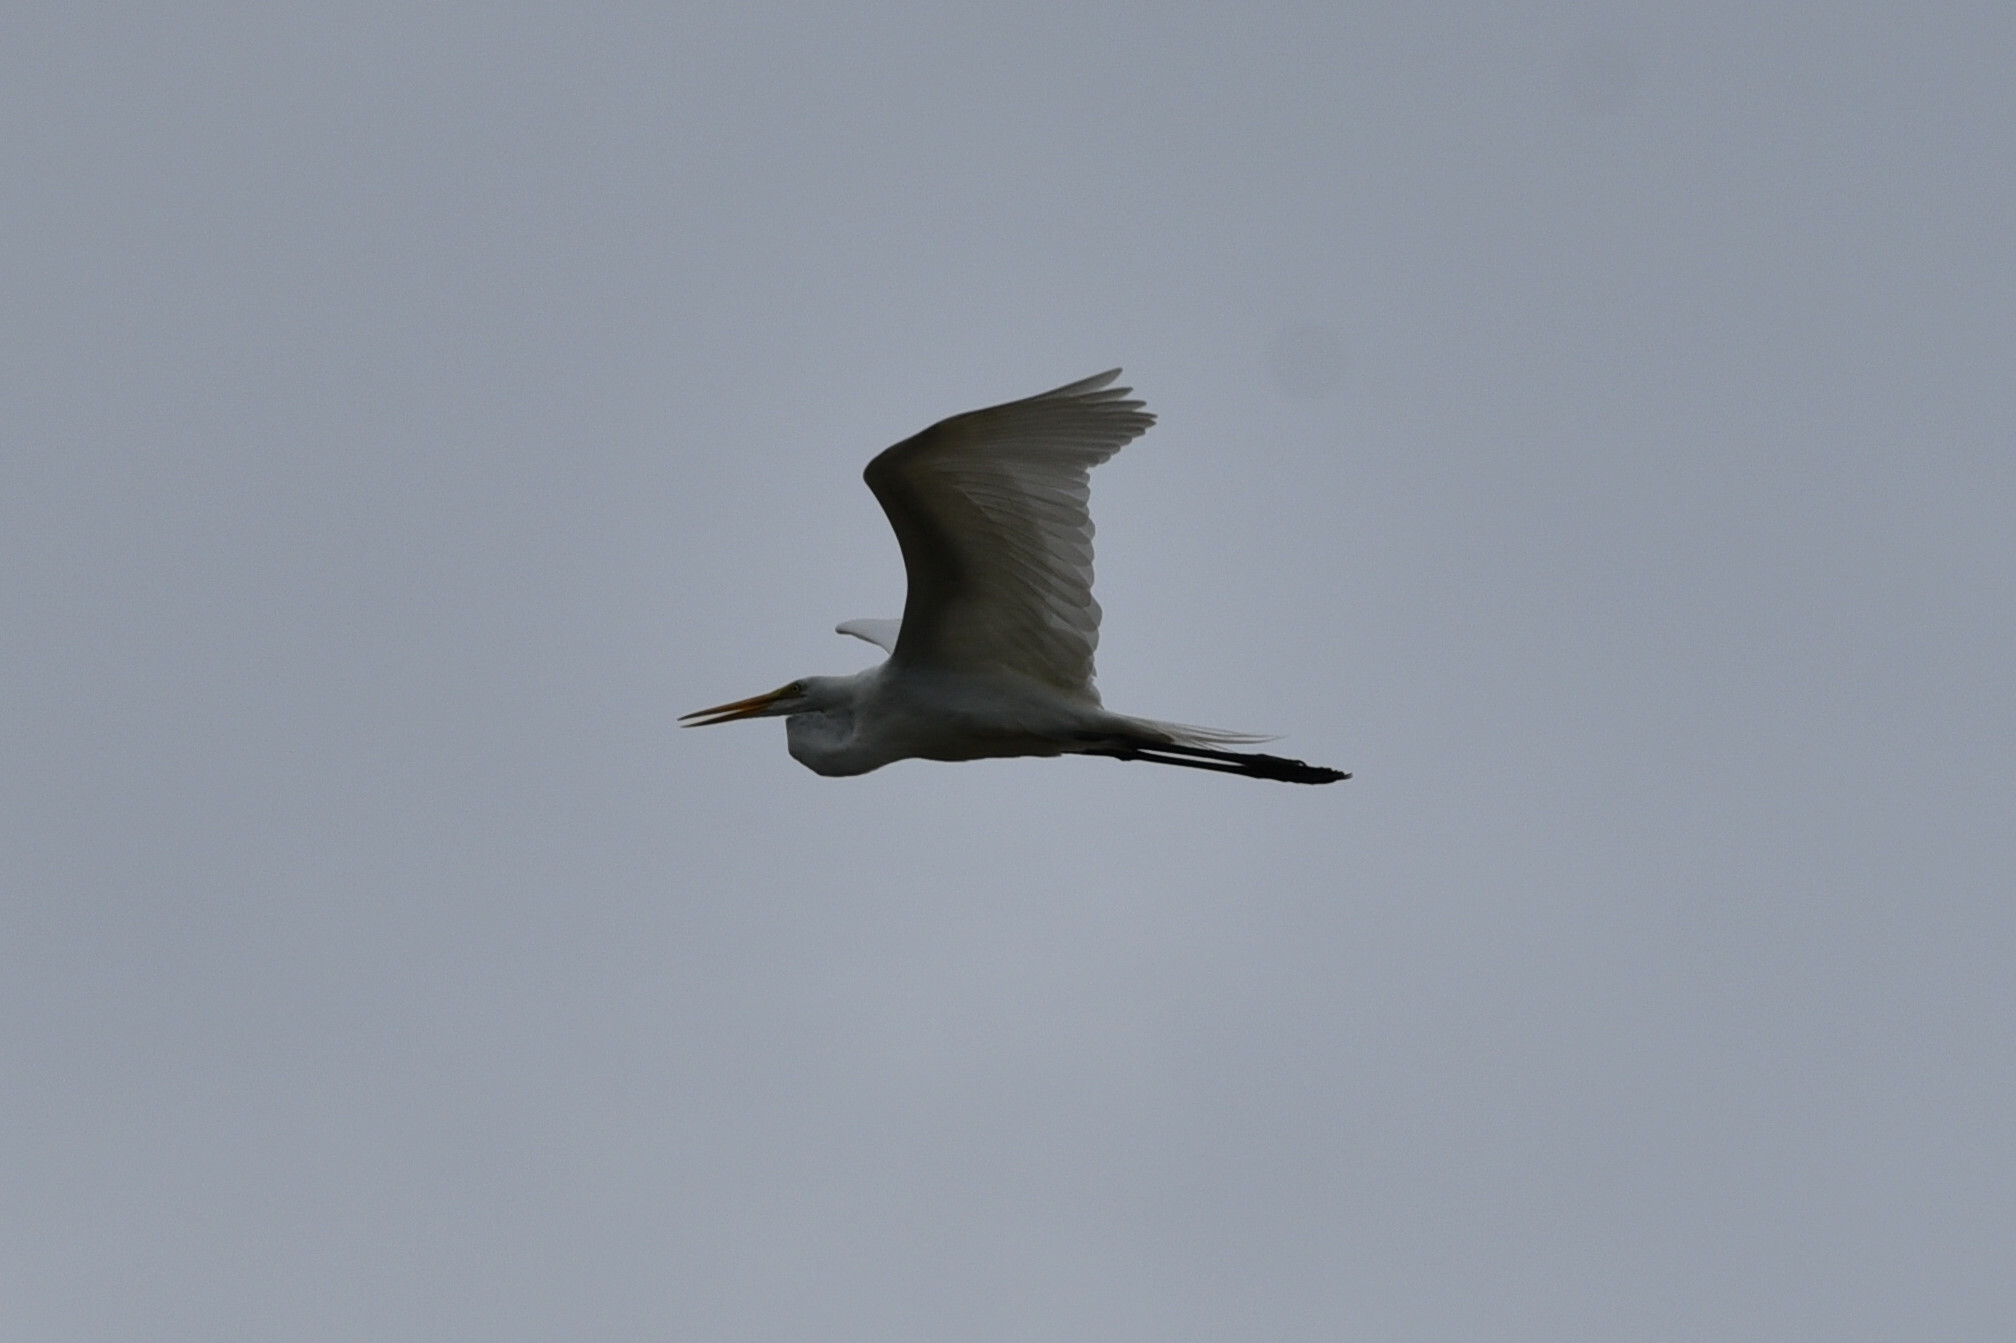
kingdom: Animalia
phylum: Chordata
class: Aves
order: Pelecaniformes
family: Ardeidae
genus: Ardea
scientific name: Ardea alba
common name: Great egret
